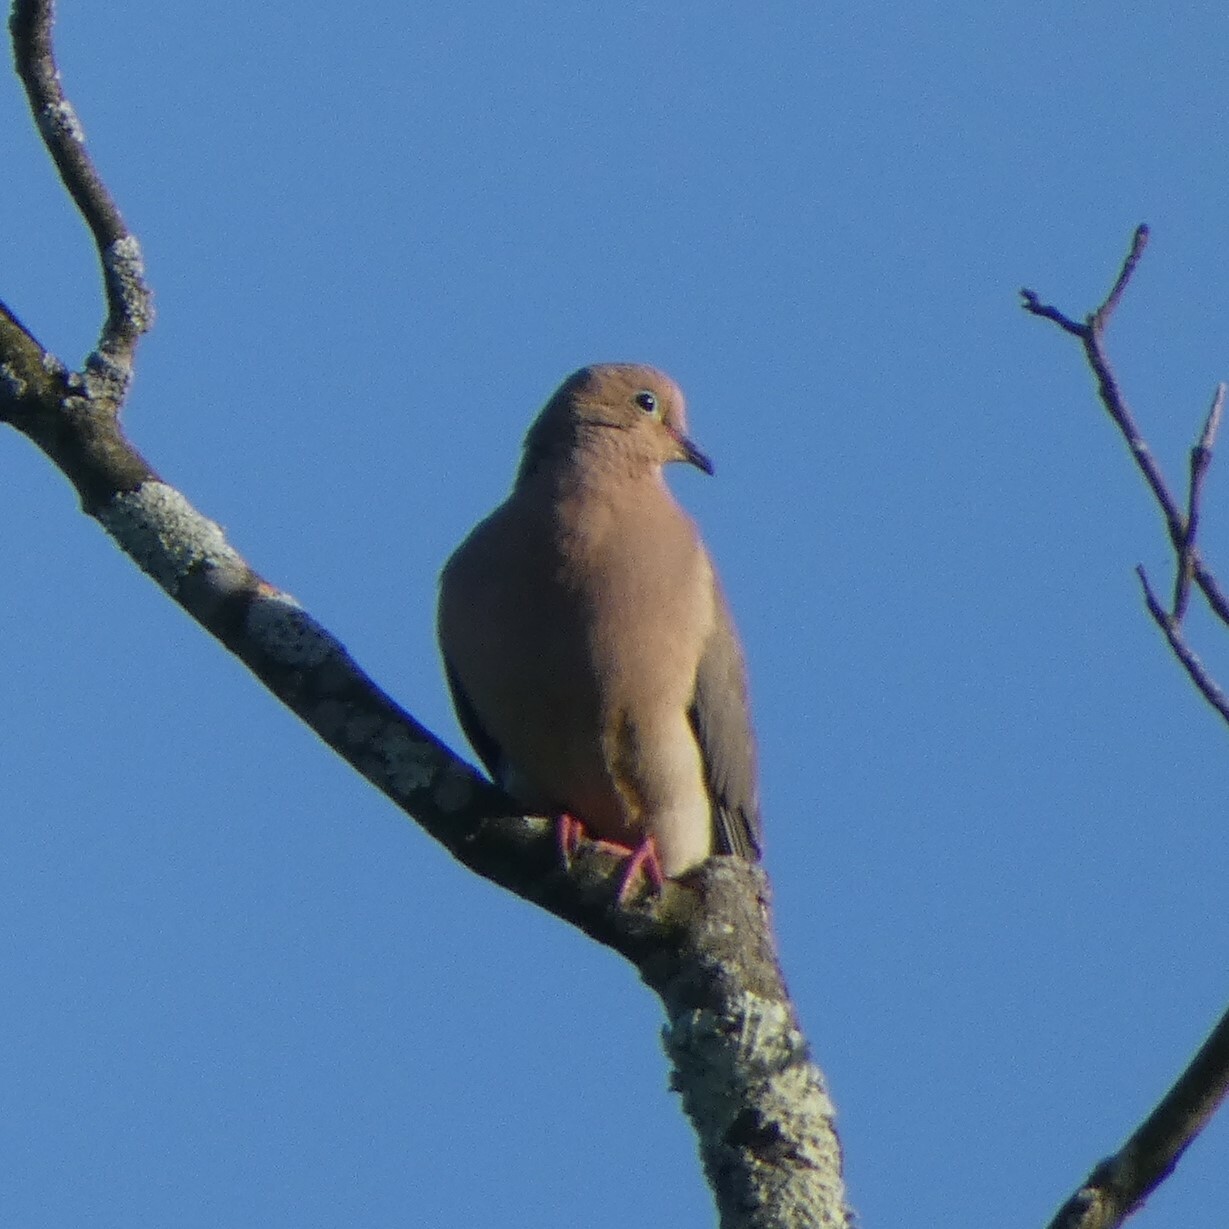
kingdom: Animalia
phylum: Chordata
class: Aves
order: Columbiformes
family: Columbidae
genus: Zenaida
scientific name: Zenaida macroura
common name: Mourning dove
